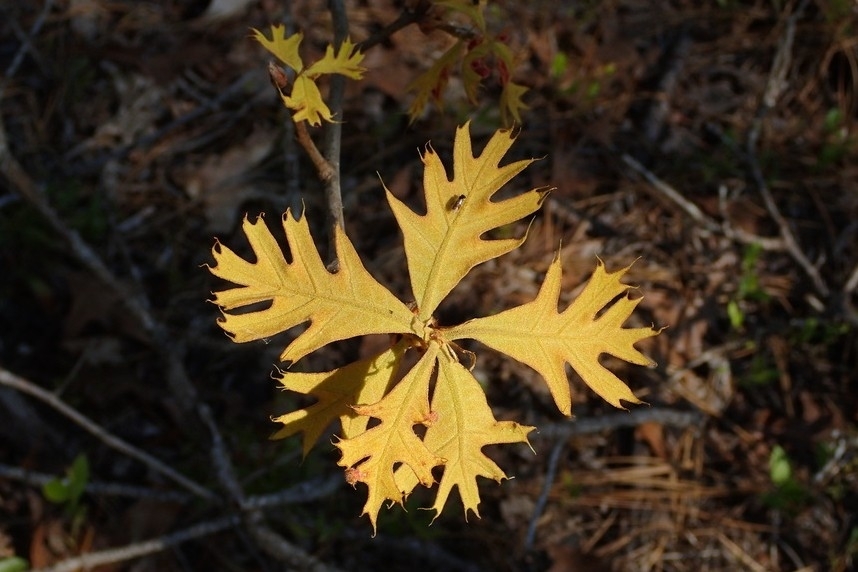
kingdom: Plantae
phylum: Tracheophyta
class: Magnoliopsida
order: Fagales
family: Fagaceae
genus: Quercus
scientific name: Quercus laevis
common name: Turkey oak
